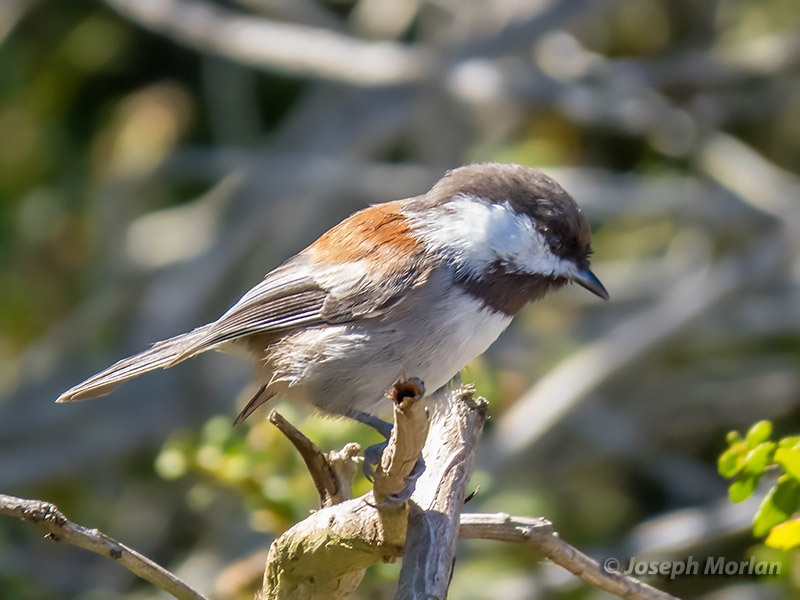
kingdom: Animalia
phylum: Chordata
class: Aves
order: Passeriformes
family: Paridae
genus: Poecile
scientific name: Poecile rufescens
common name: Chestnut-backed chickadee
